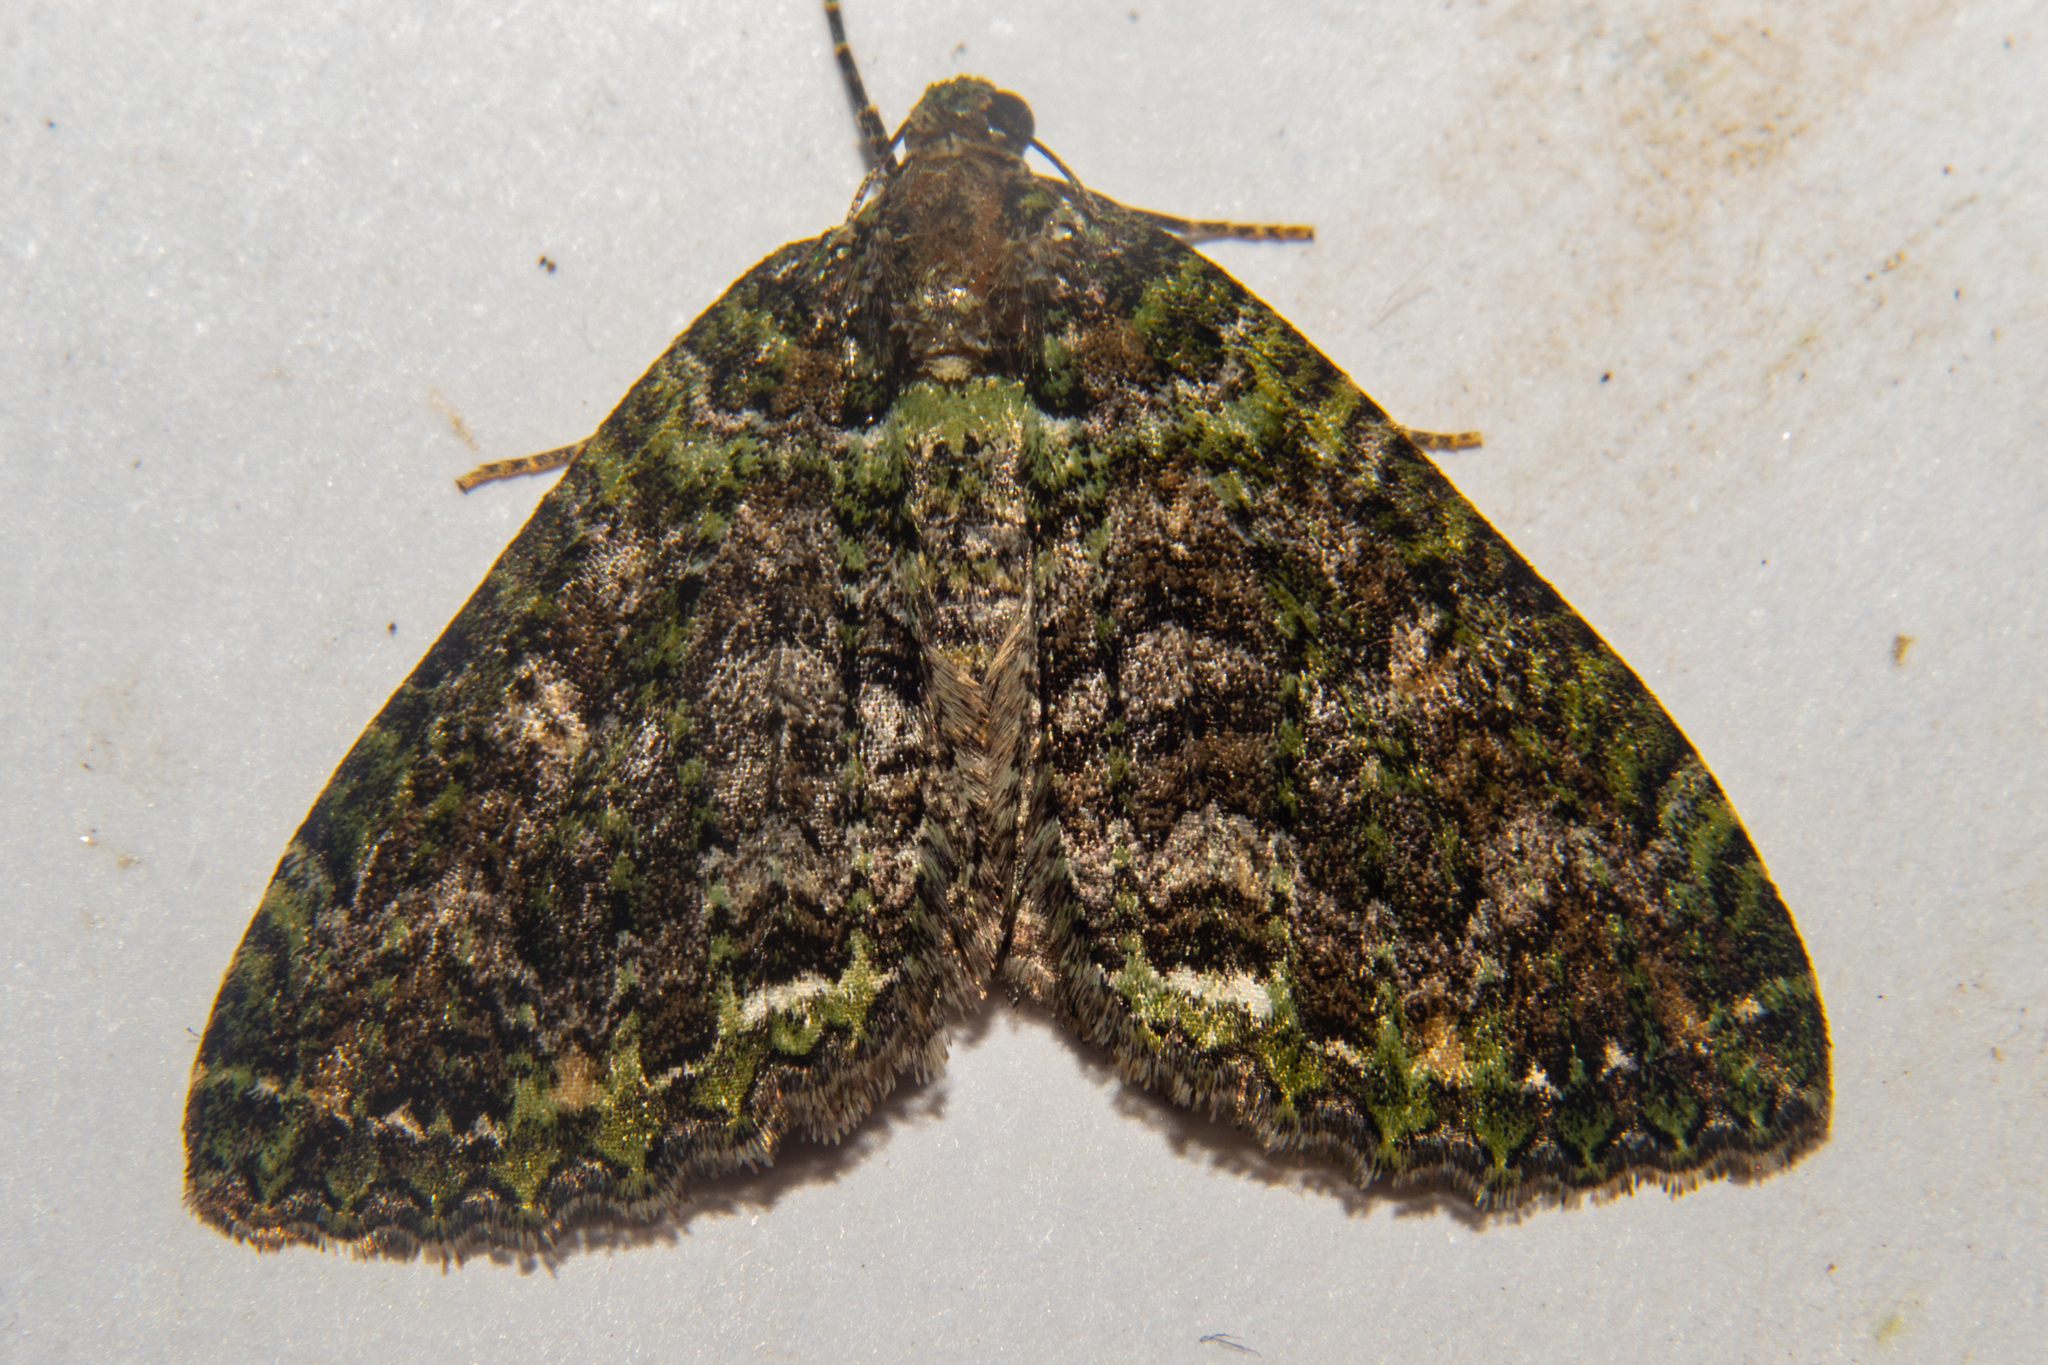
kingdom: Animalia
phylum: Arthropoda
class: Insecta
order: Lepidoptera
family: Geometridae
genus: Austrocidaria
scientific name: Austrocidaria similata
